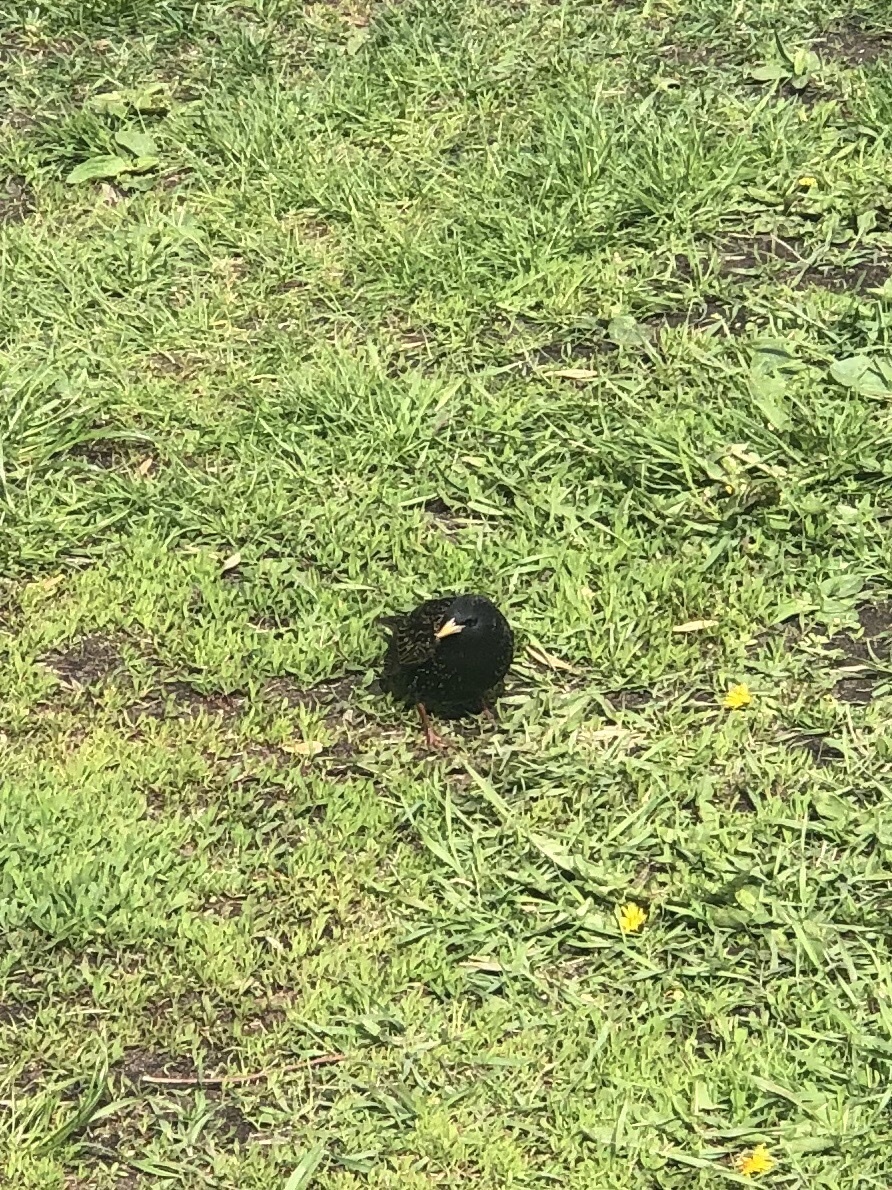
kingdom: Animalia
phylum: Chordata
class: Aves
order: Passeriformes
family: Sturnidae
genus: Sturnus
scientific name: Sturnus vulgaris
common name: Common starling
